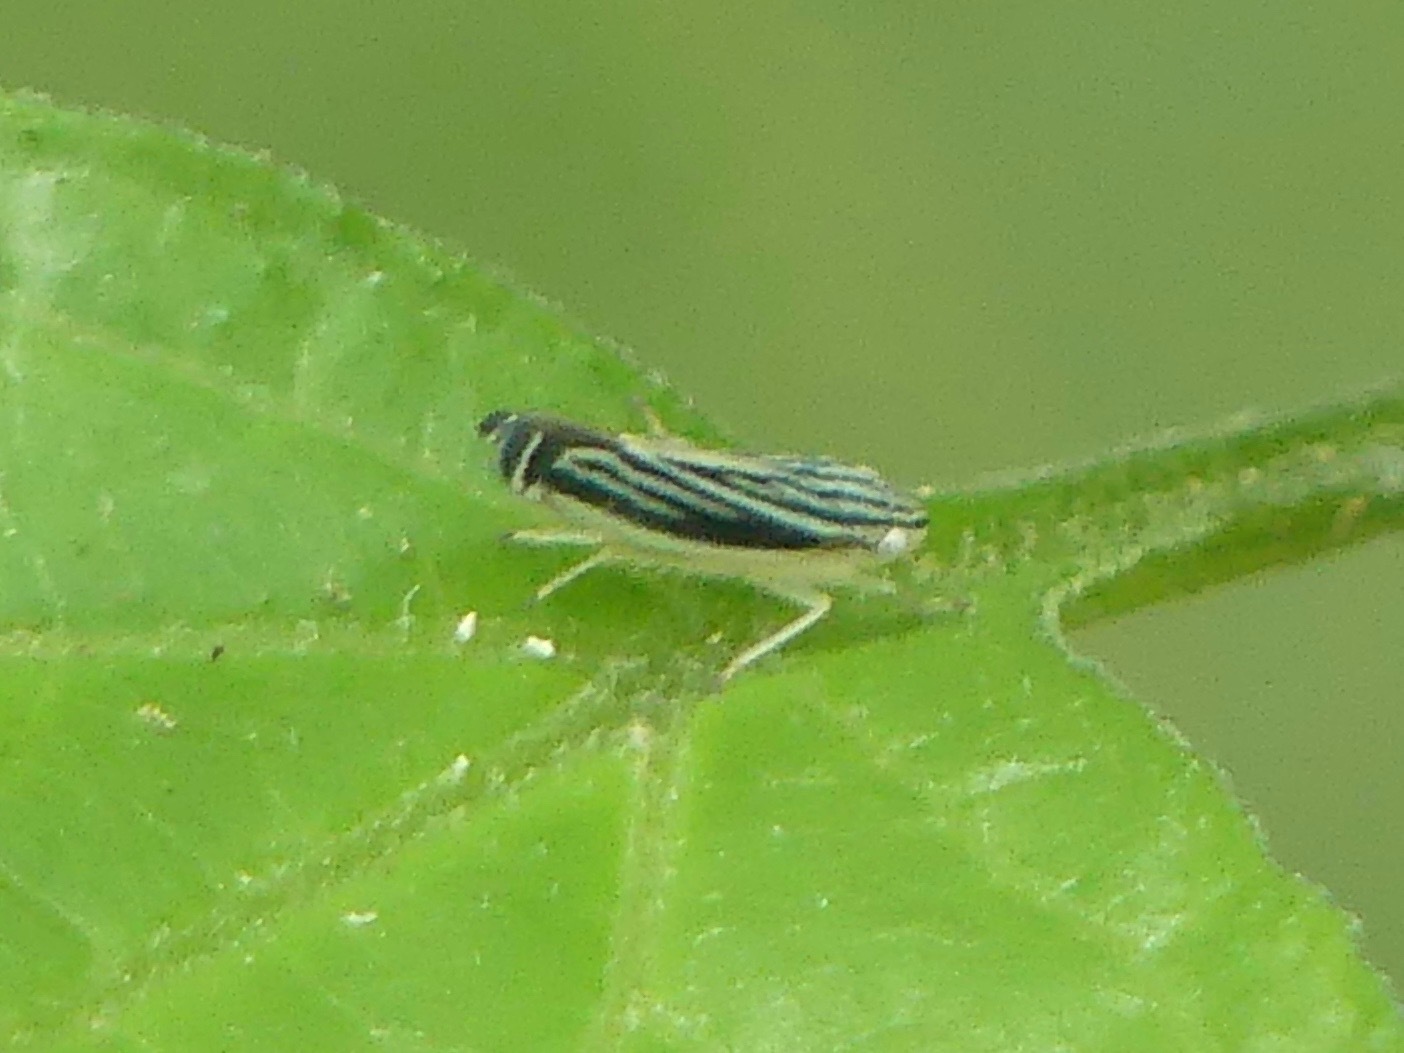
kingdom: Animalia
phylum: Arthropoda
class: Insecta
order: Hemiptera
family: Cicadellidae
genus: Sibovia
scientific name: Sibovia occatoria
